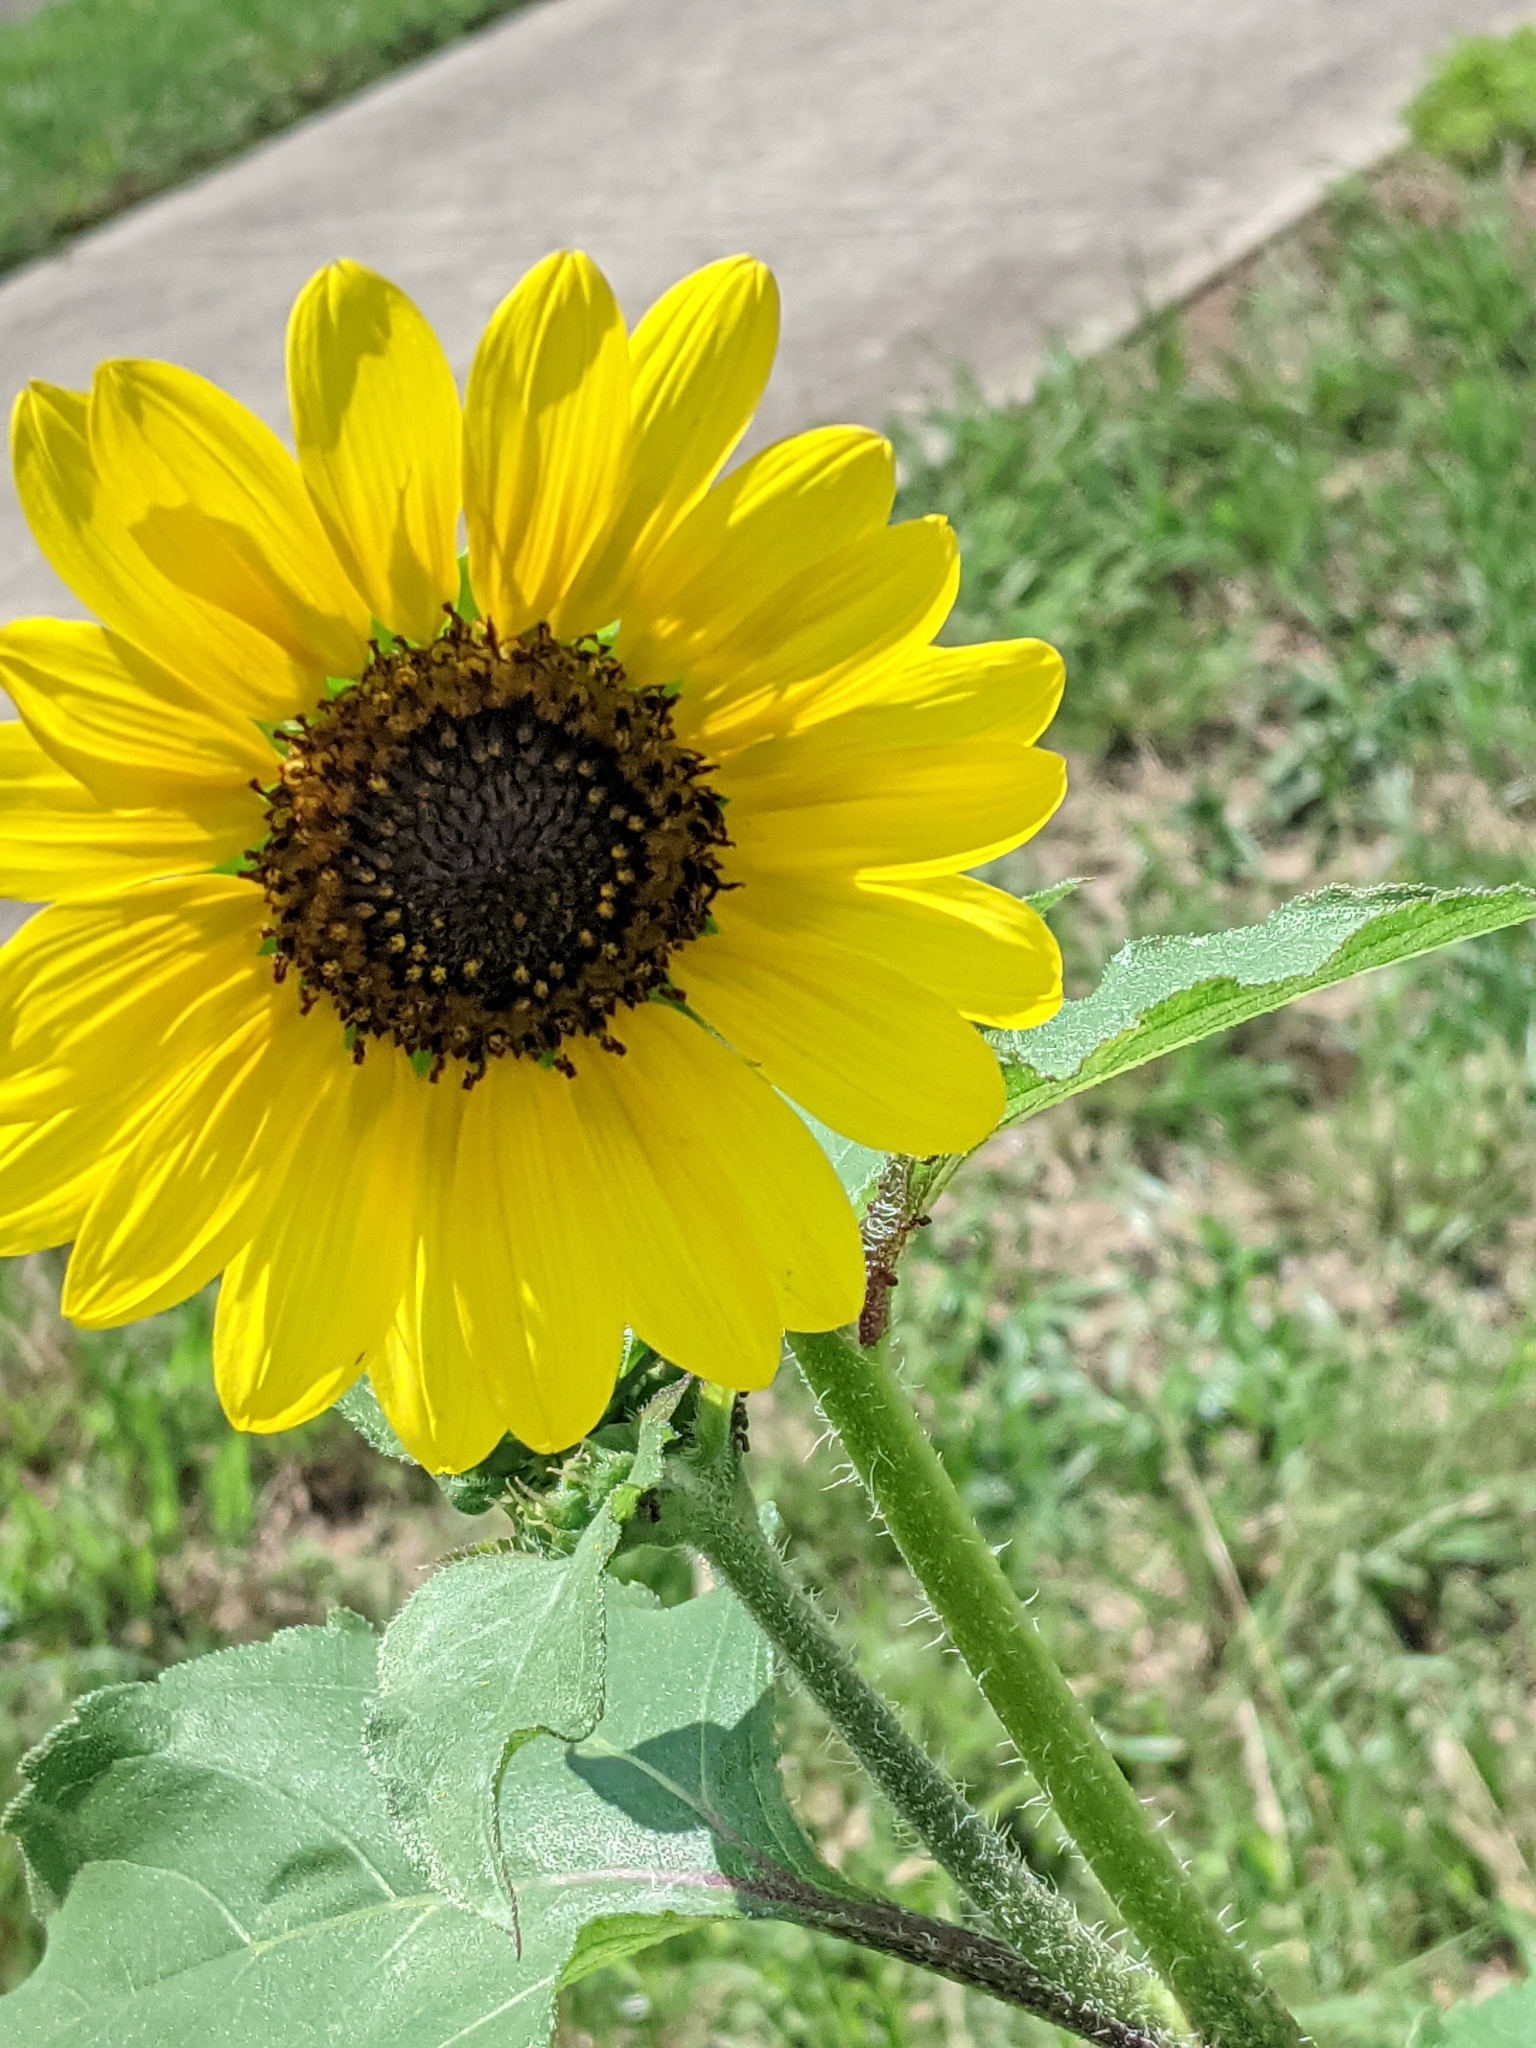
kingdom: Plantae
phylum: Tracheophyta
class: Magnoliopsida
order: Asterales
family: Asteraceae
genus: Helianthus
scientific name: Helianthus annuus
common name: Sunflower
